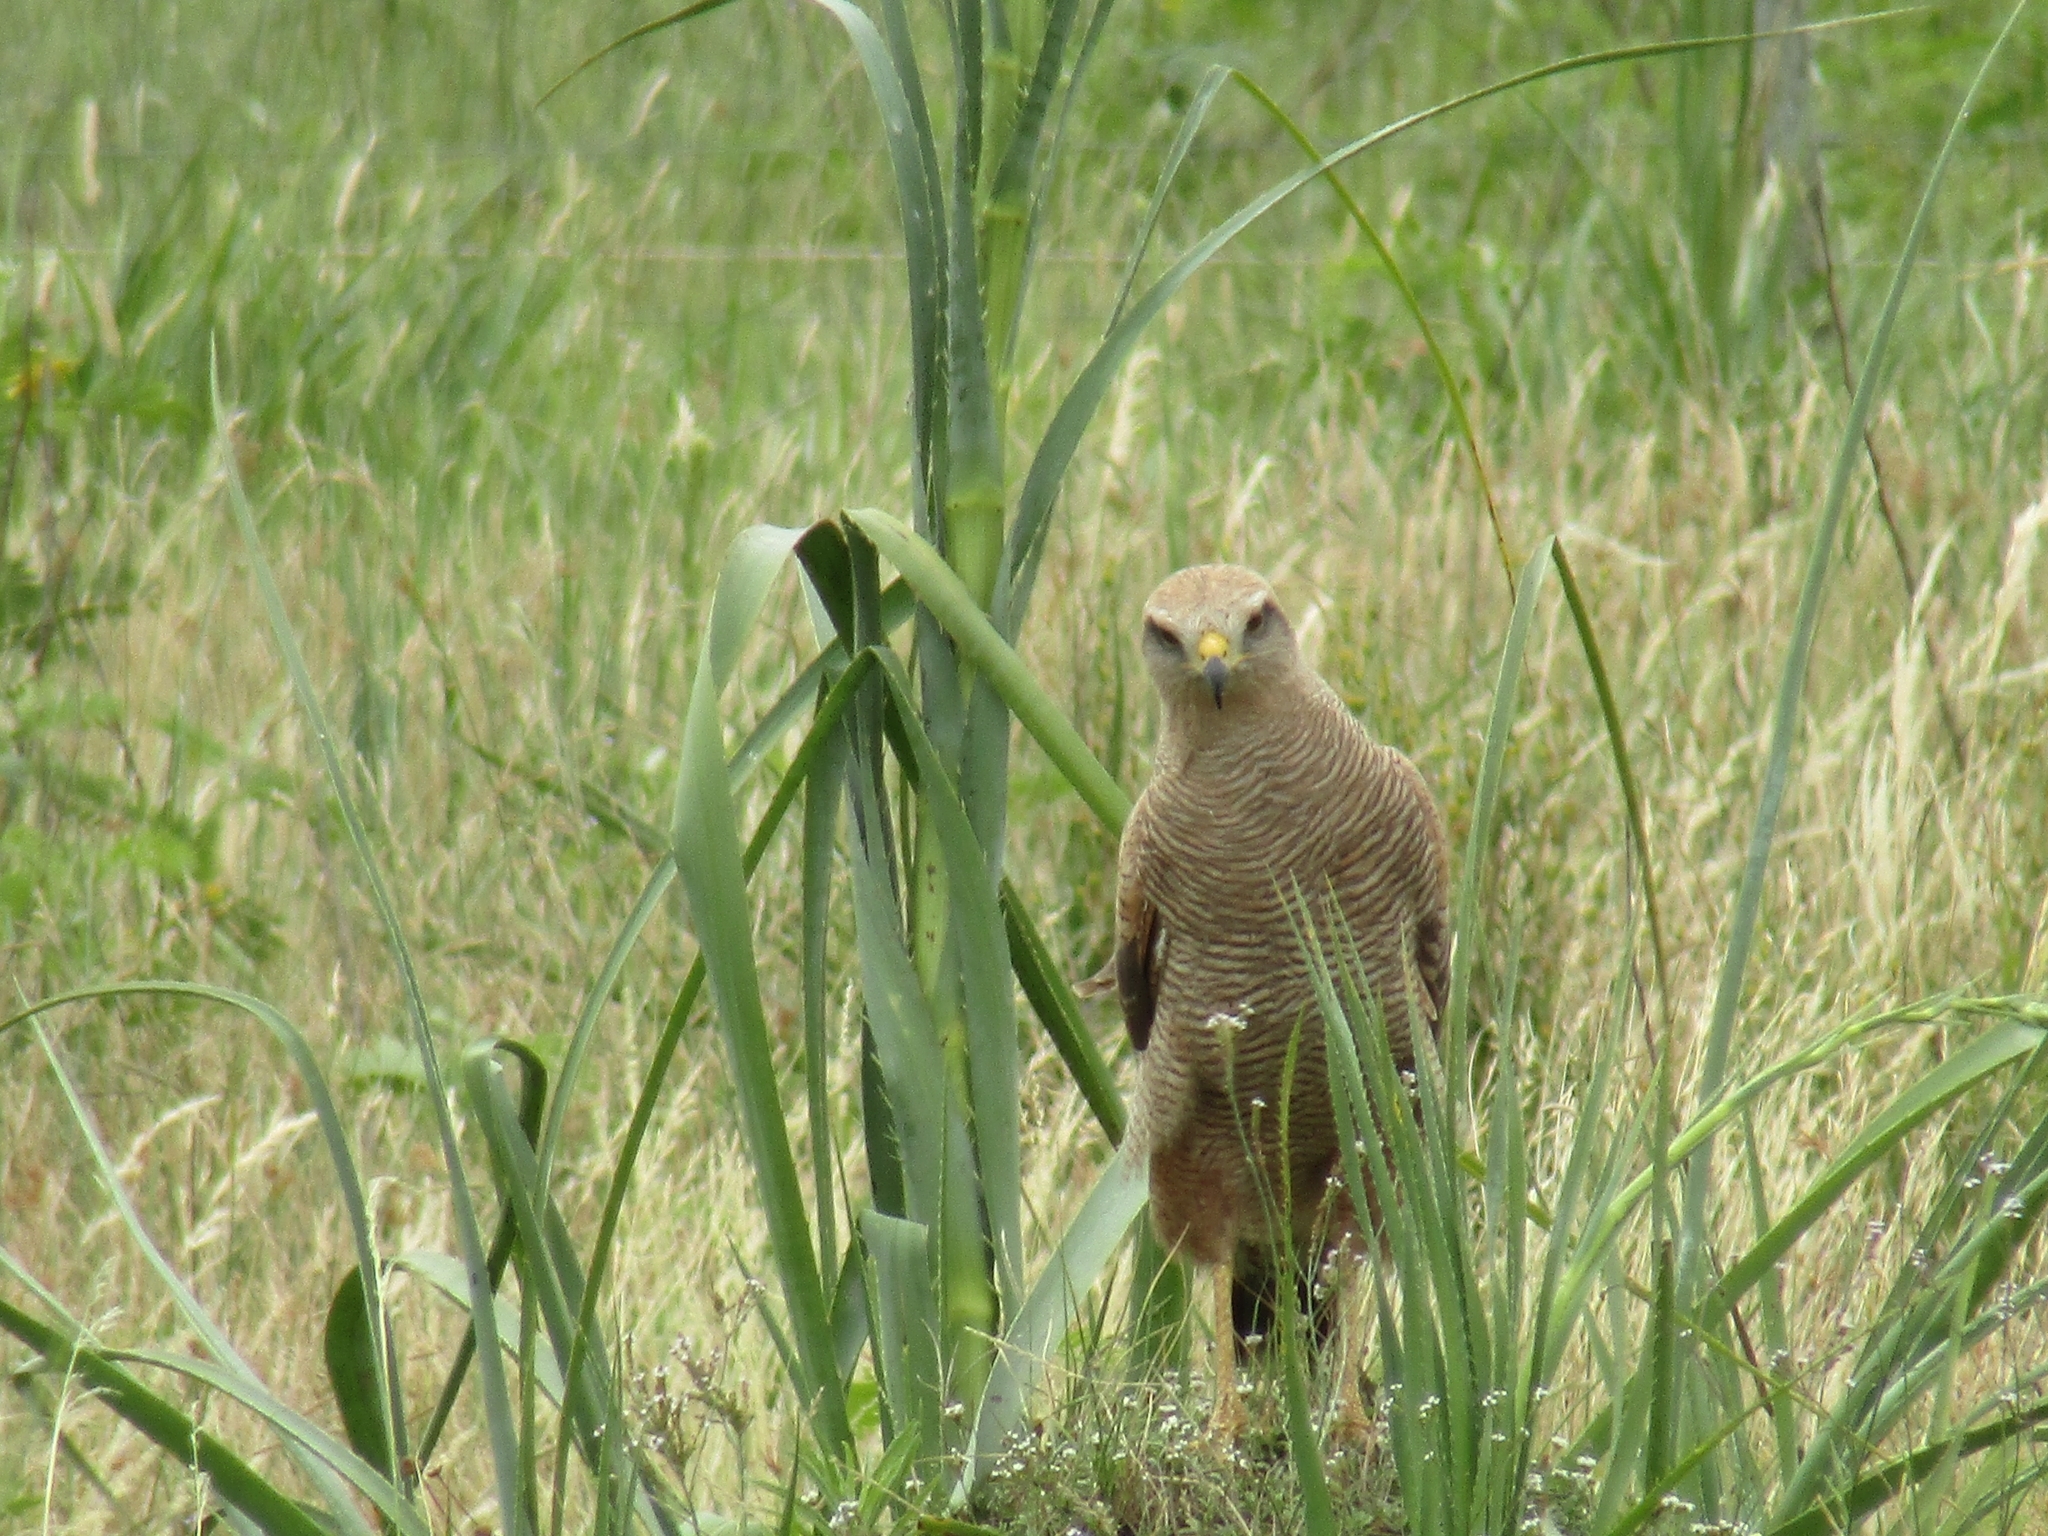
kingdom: Animalia
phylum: Chordata
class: Aves
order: Accipitriformes
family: Accipitridae
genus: Buteogallus
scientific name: Buteogallus meridionalis
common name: Savanna hawk
